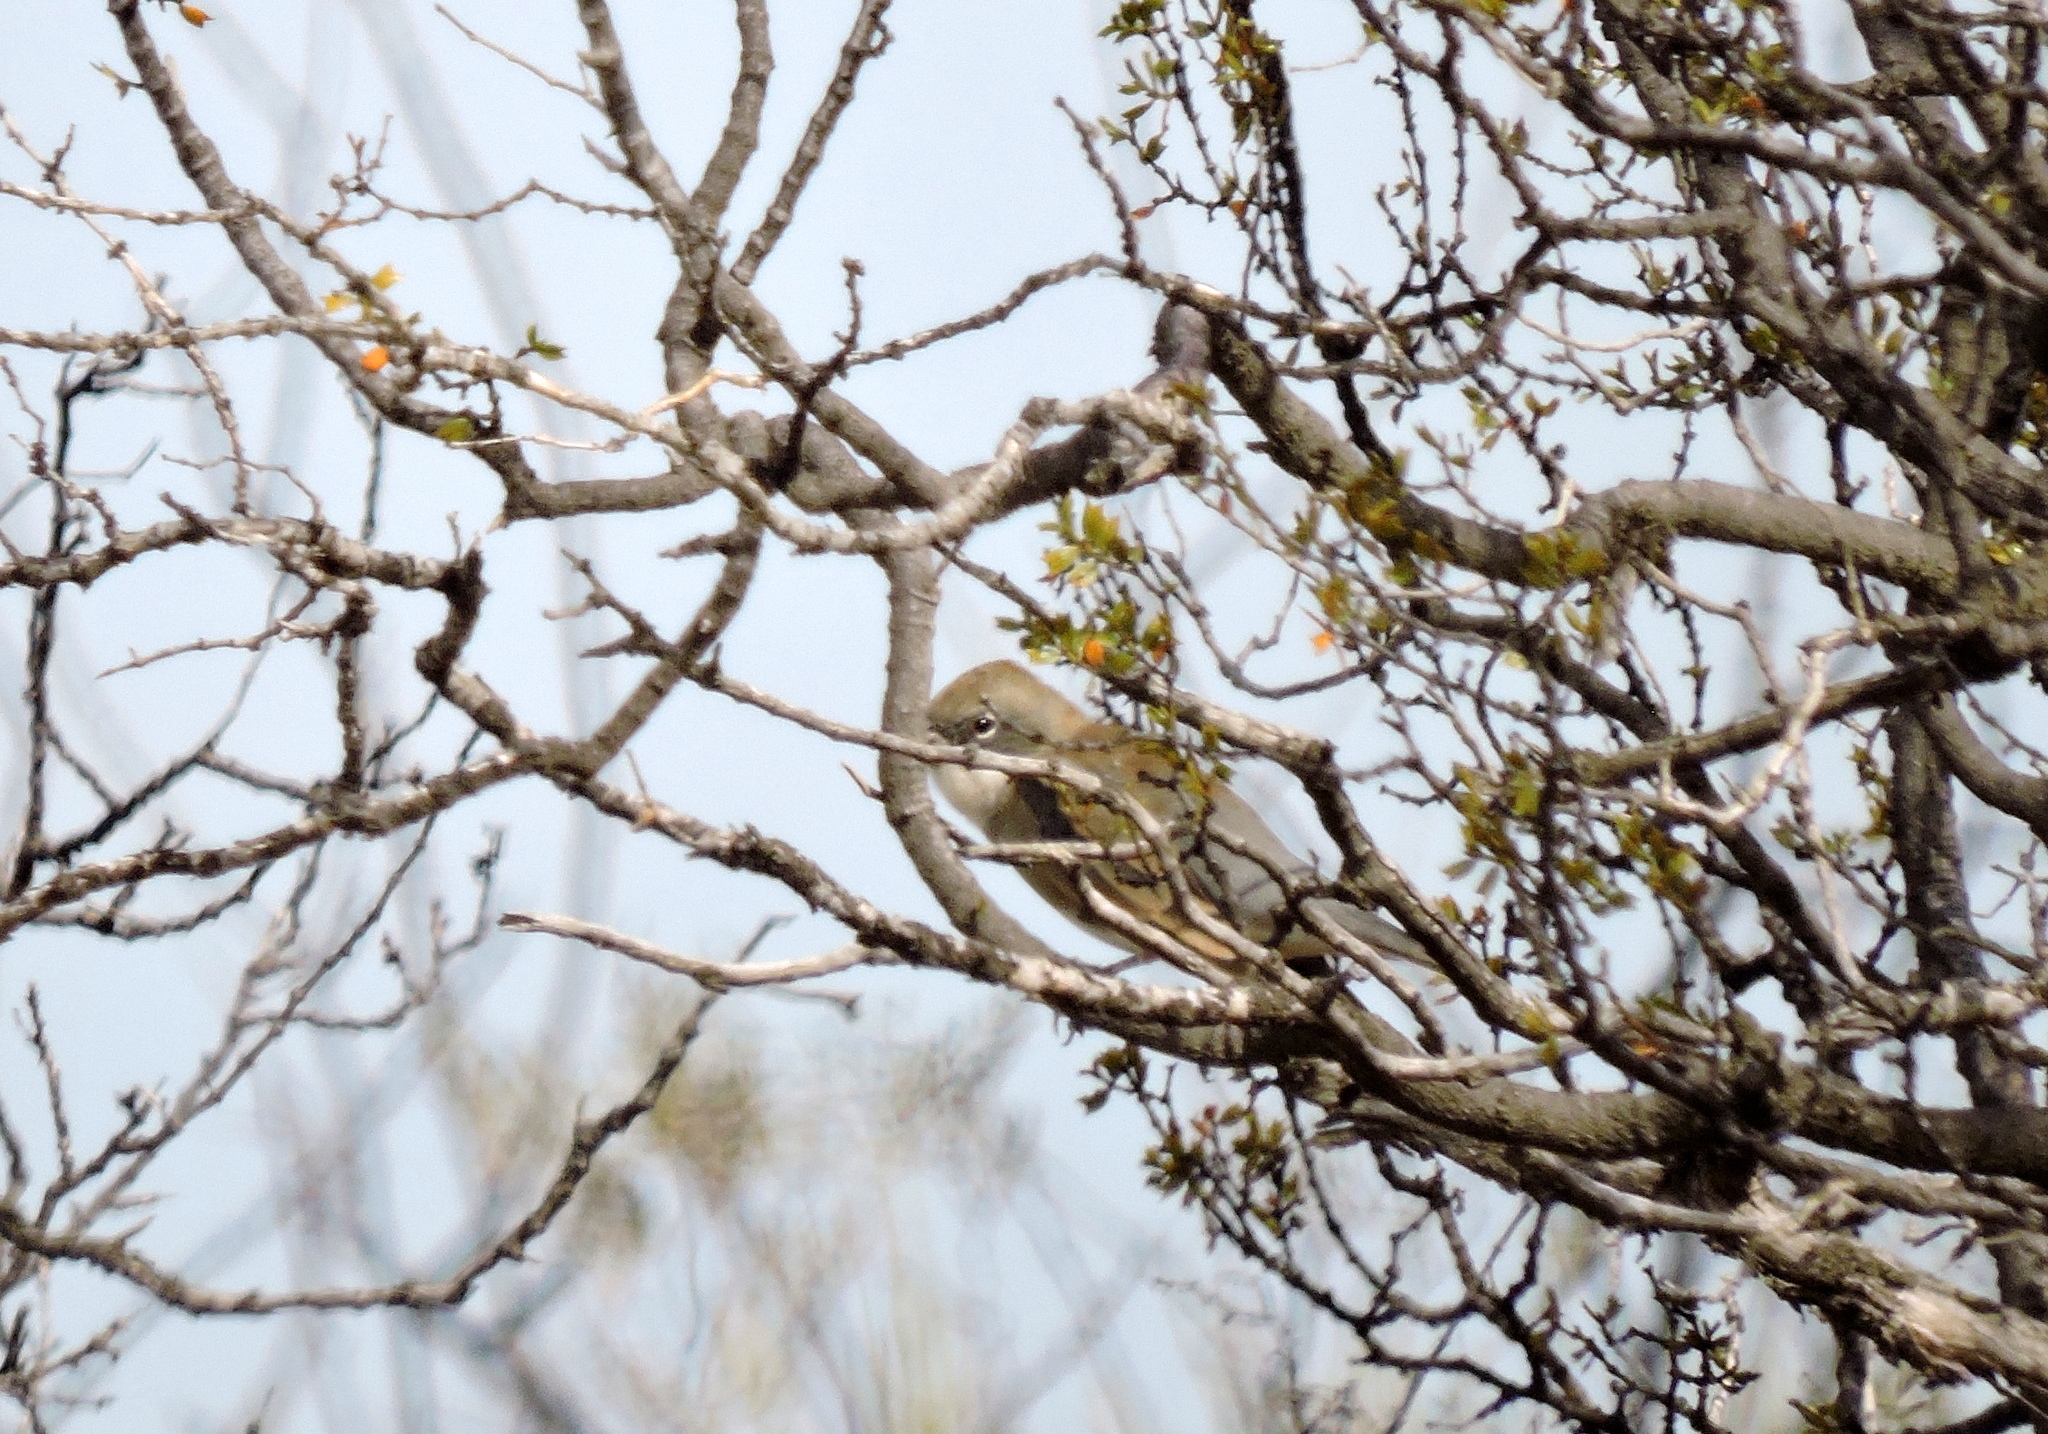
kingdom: Animalia
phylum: Chordata
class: Aves
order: Passeriformes
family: Thraupidae
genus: Diuca
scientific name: Diuca diuca
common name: Common diuca finch
